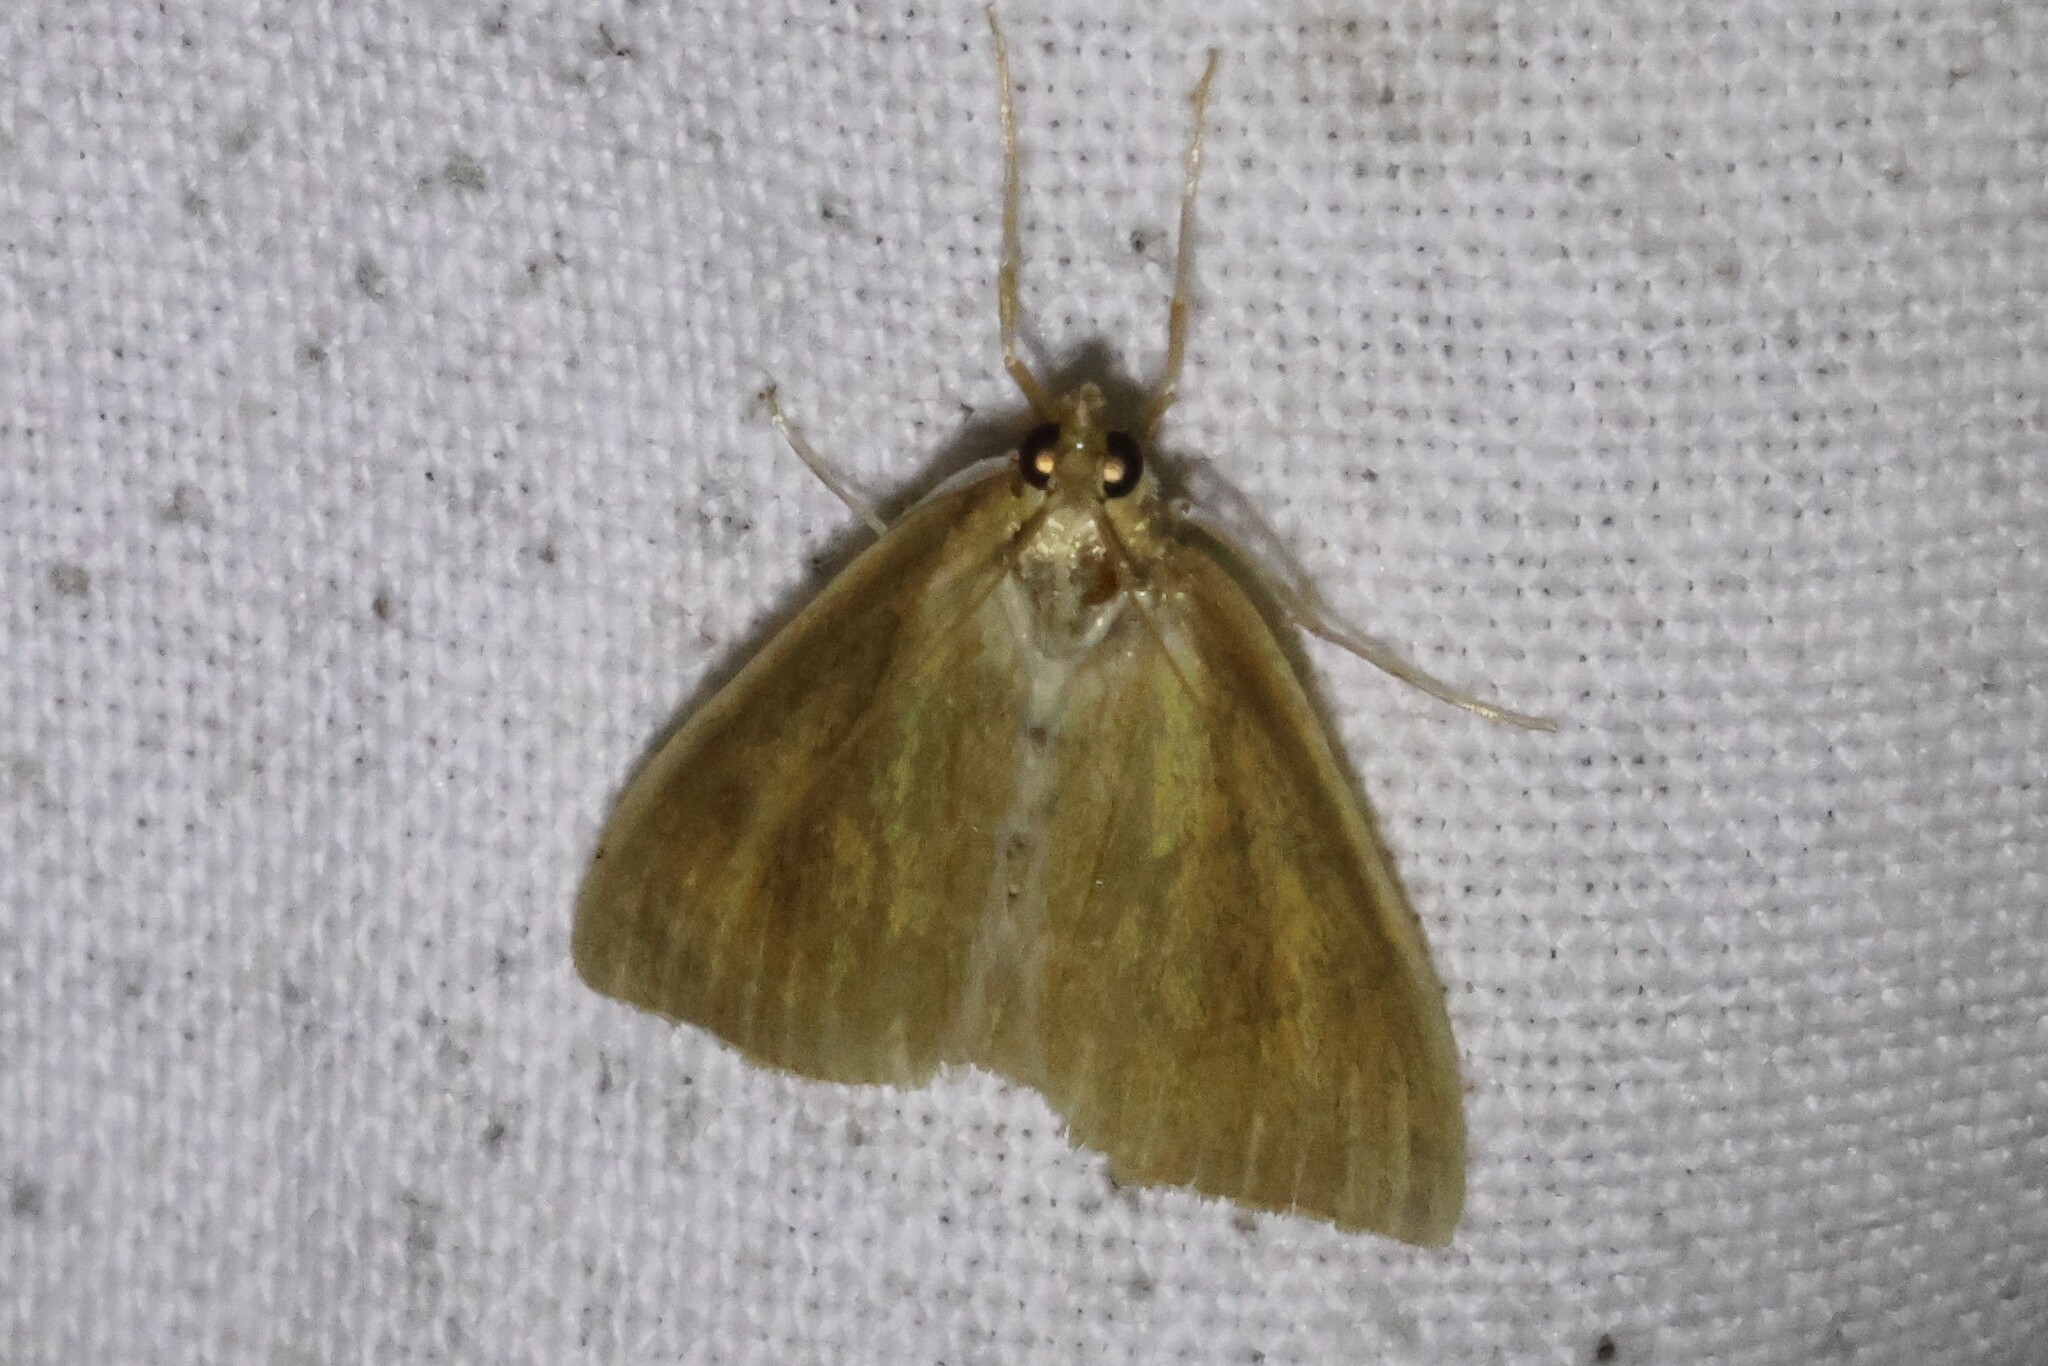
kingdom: Animalia
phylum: Arthropoda
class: Insecta
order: Lepidoptera
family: Crambidae
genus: Nascia
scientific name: Nascia acutellus
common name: Streaked orange moth
